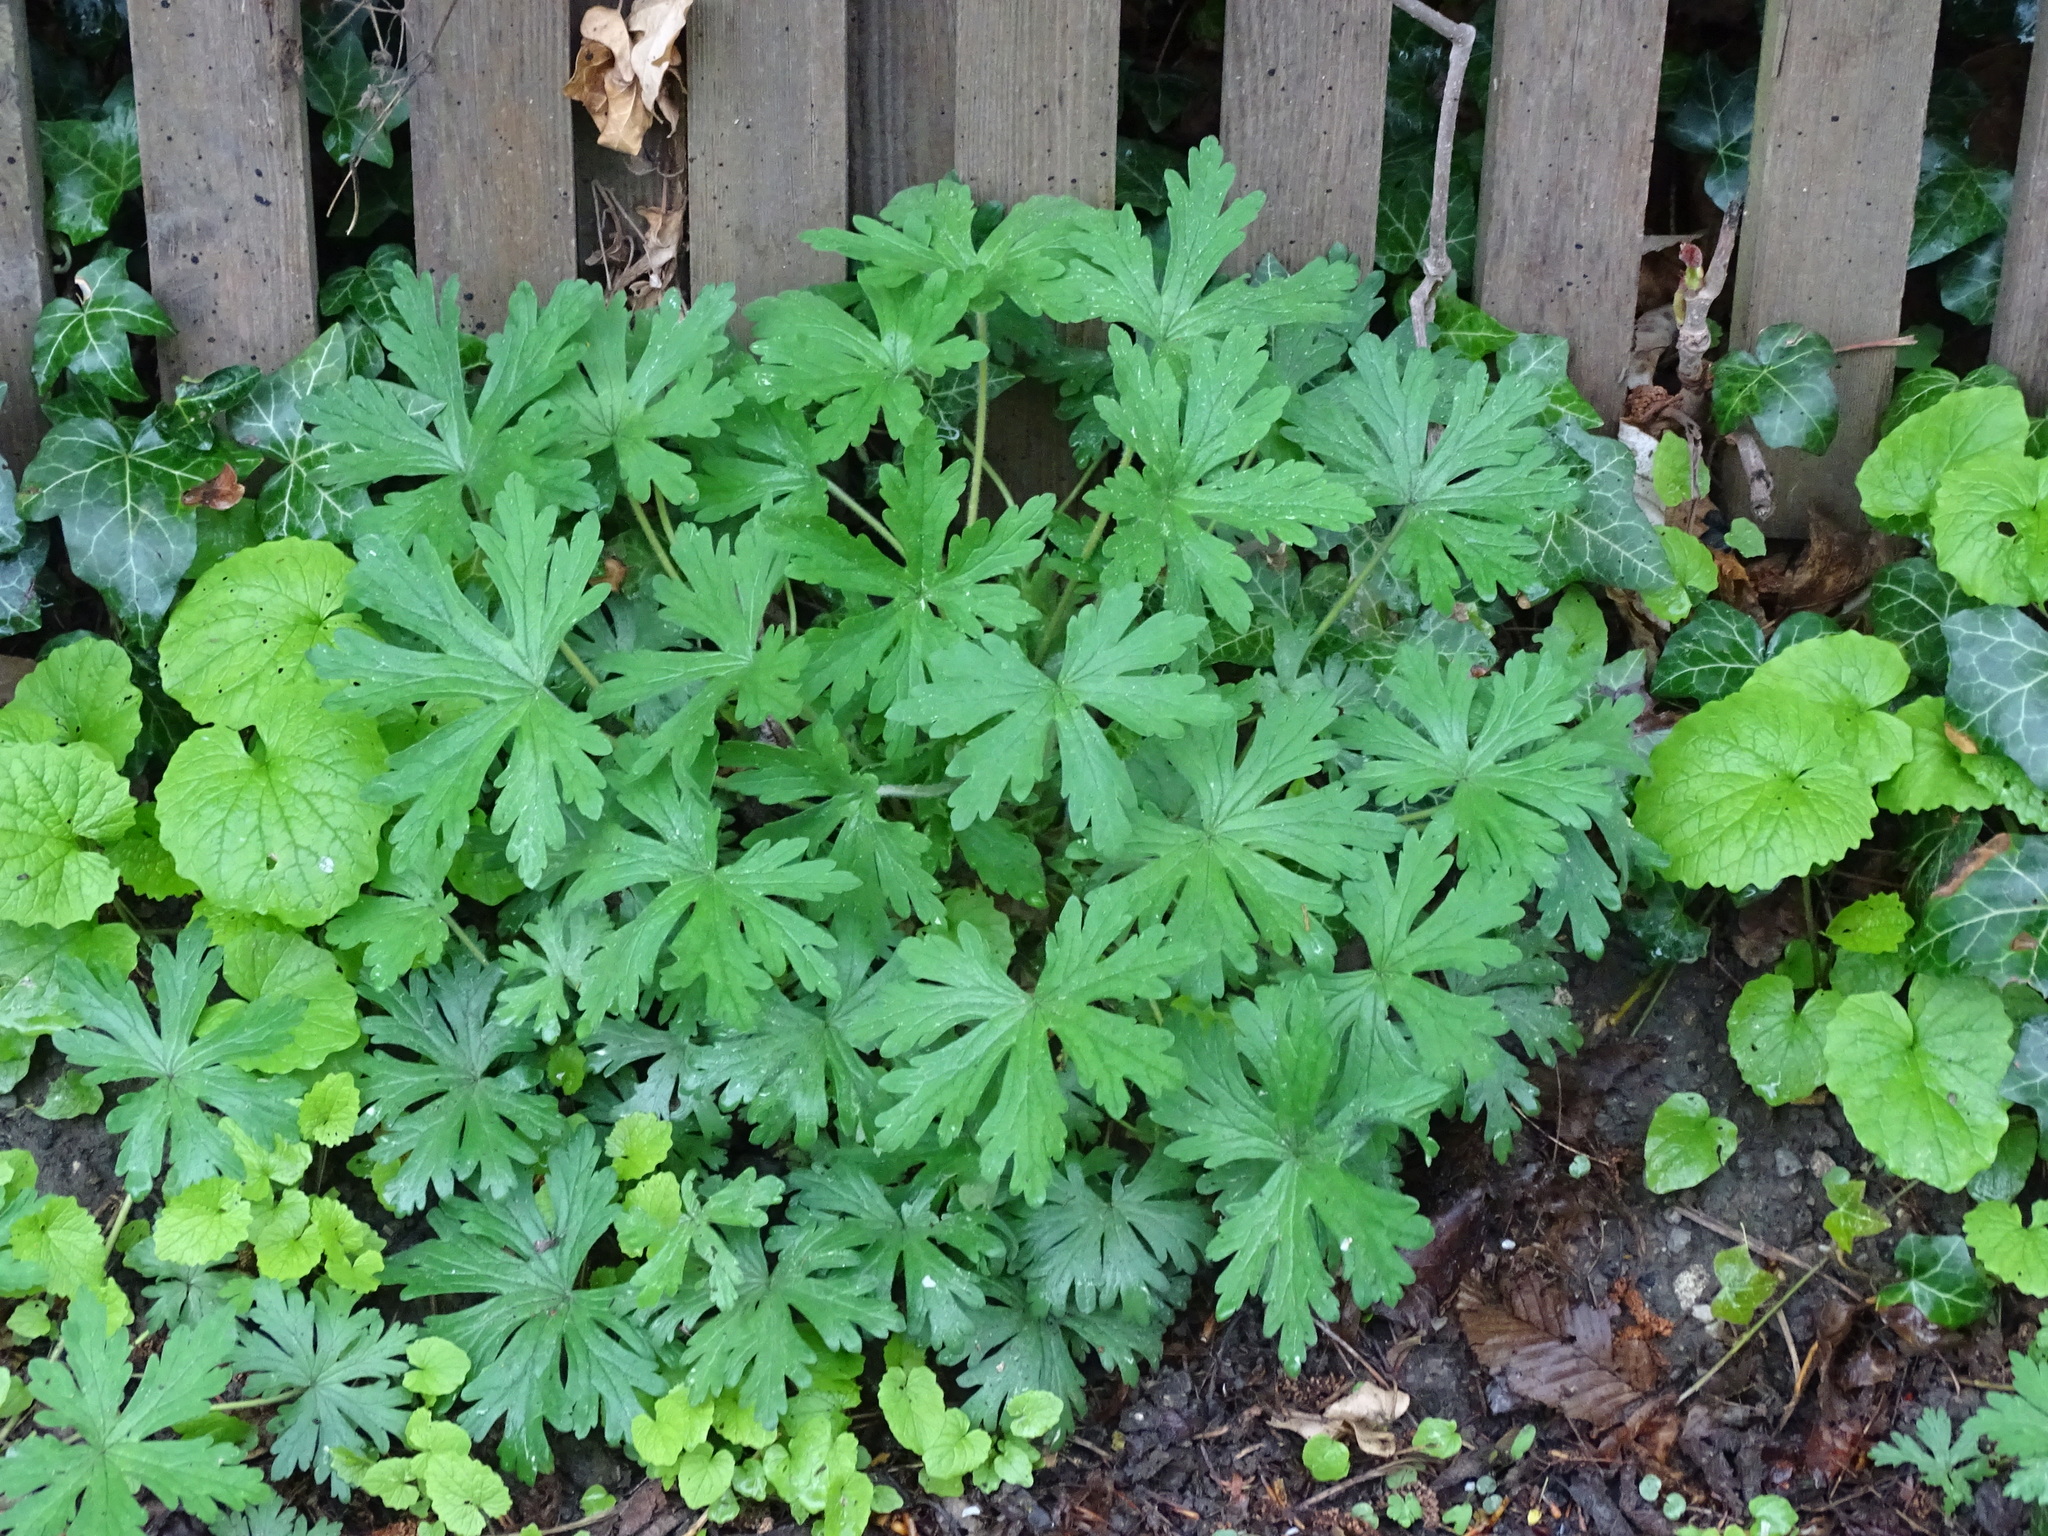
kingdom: Plantae
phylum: Tracheophyta
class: Magnoliopsida
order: Geraniales
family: Geraniaceae
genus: Geranium
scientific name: Geranium sibiricum
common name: Siberian crane's-bill
